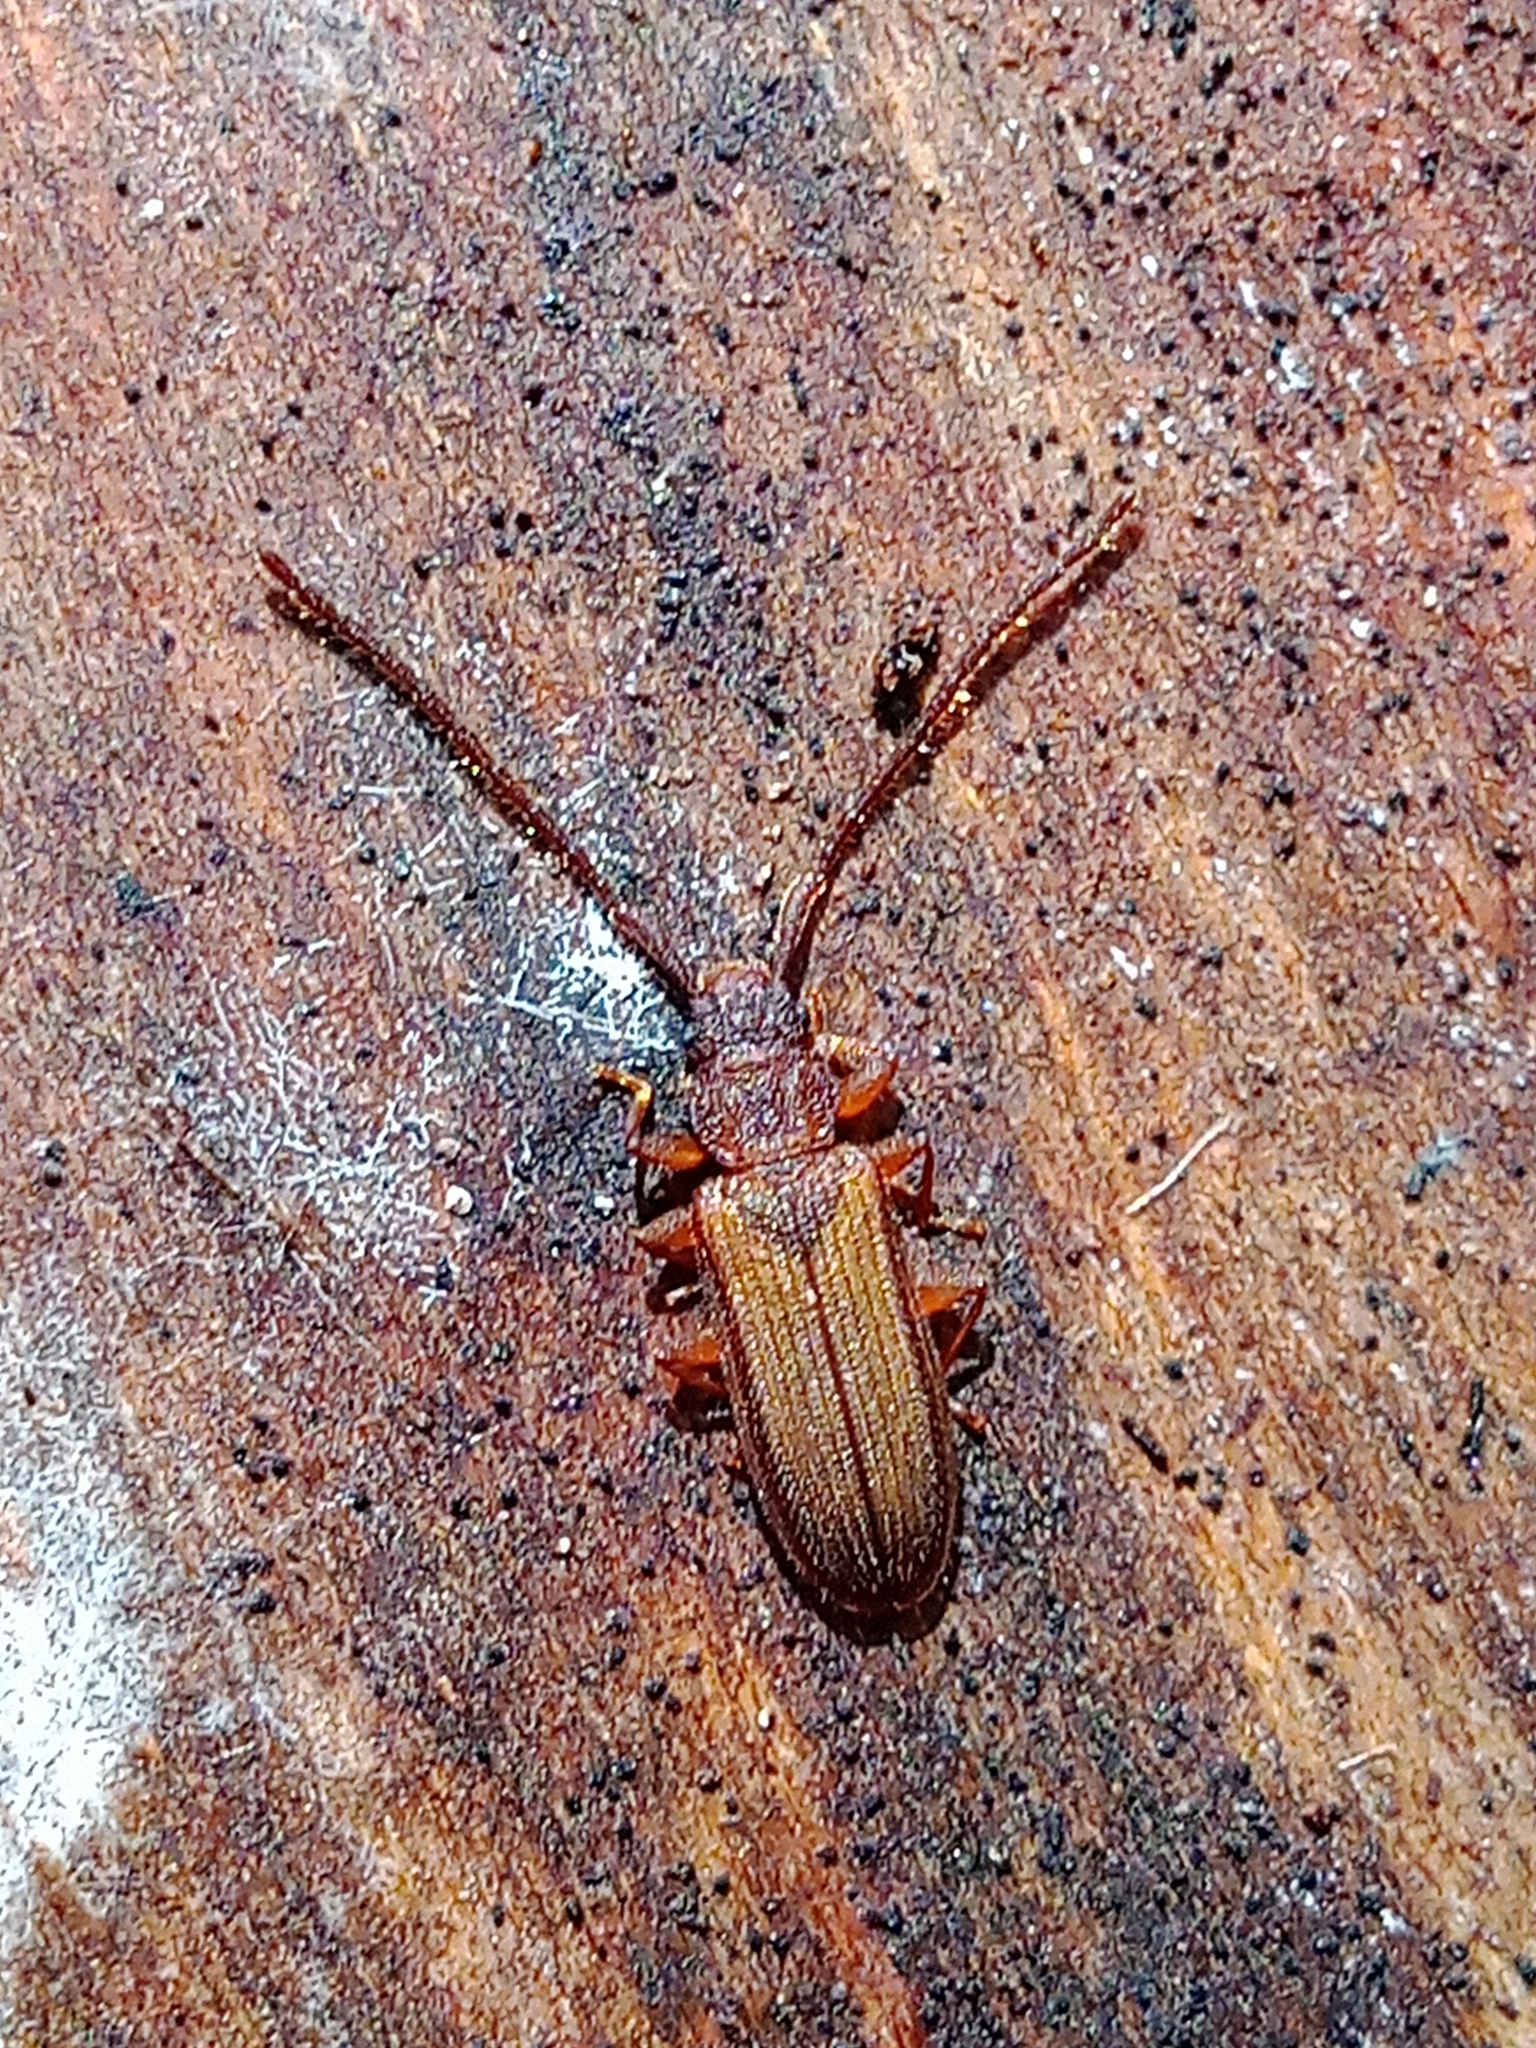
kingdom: Animalia
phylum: Arthropoda
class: Insecta
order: Coleoptera
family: Silvanidae
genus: Uleiota
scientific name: Uleiota planatus
